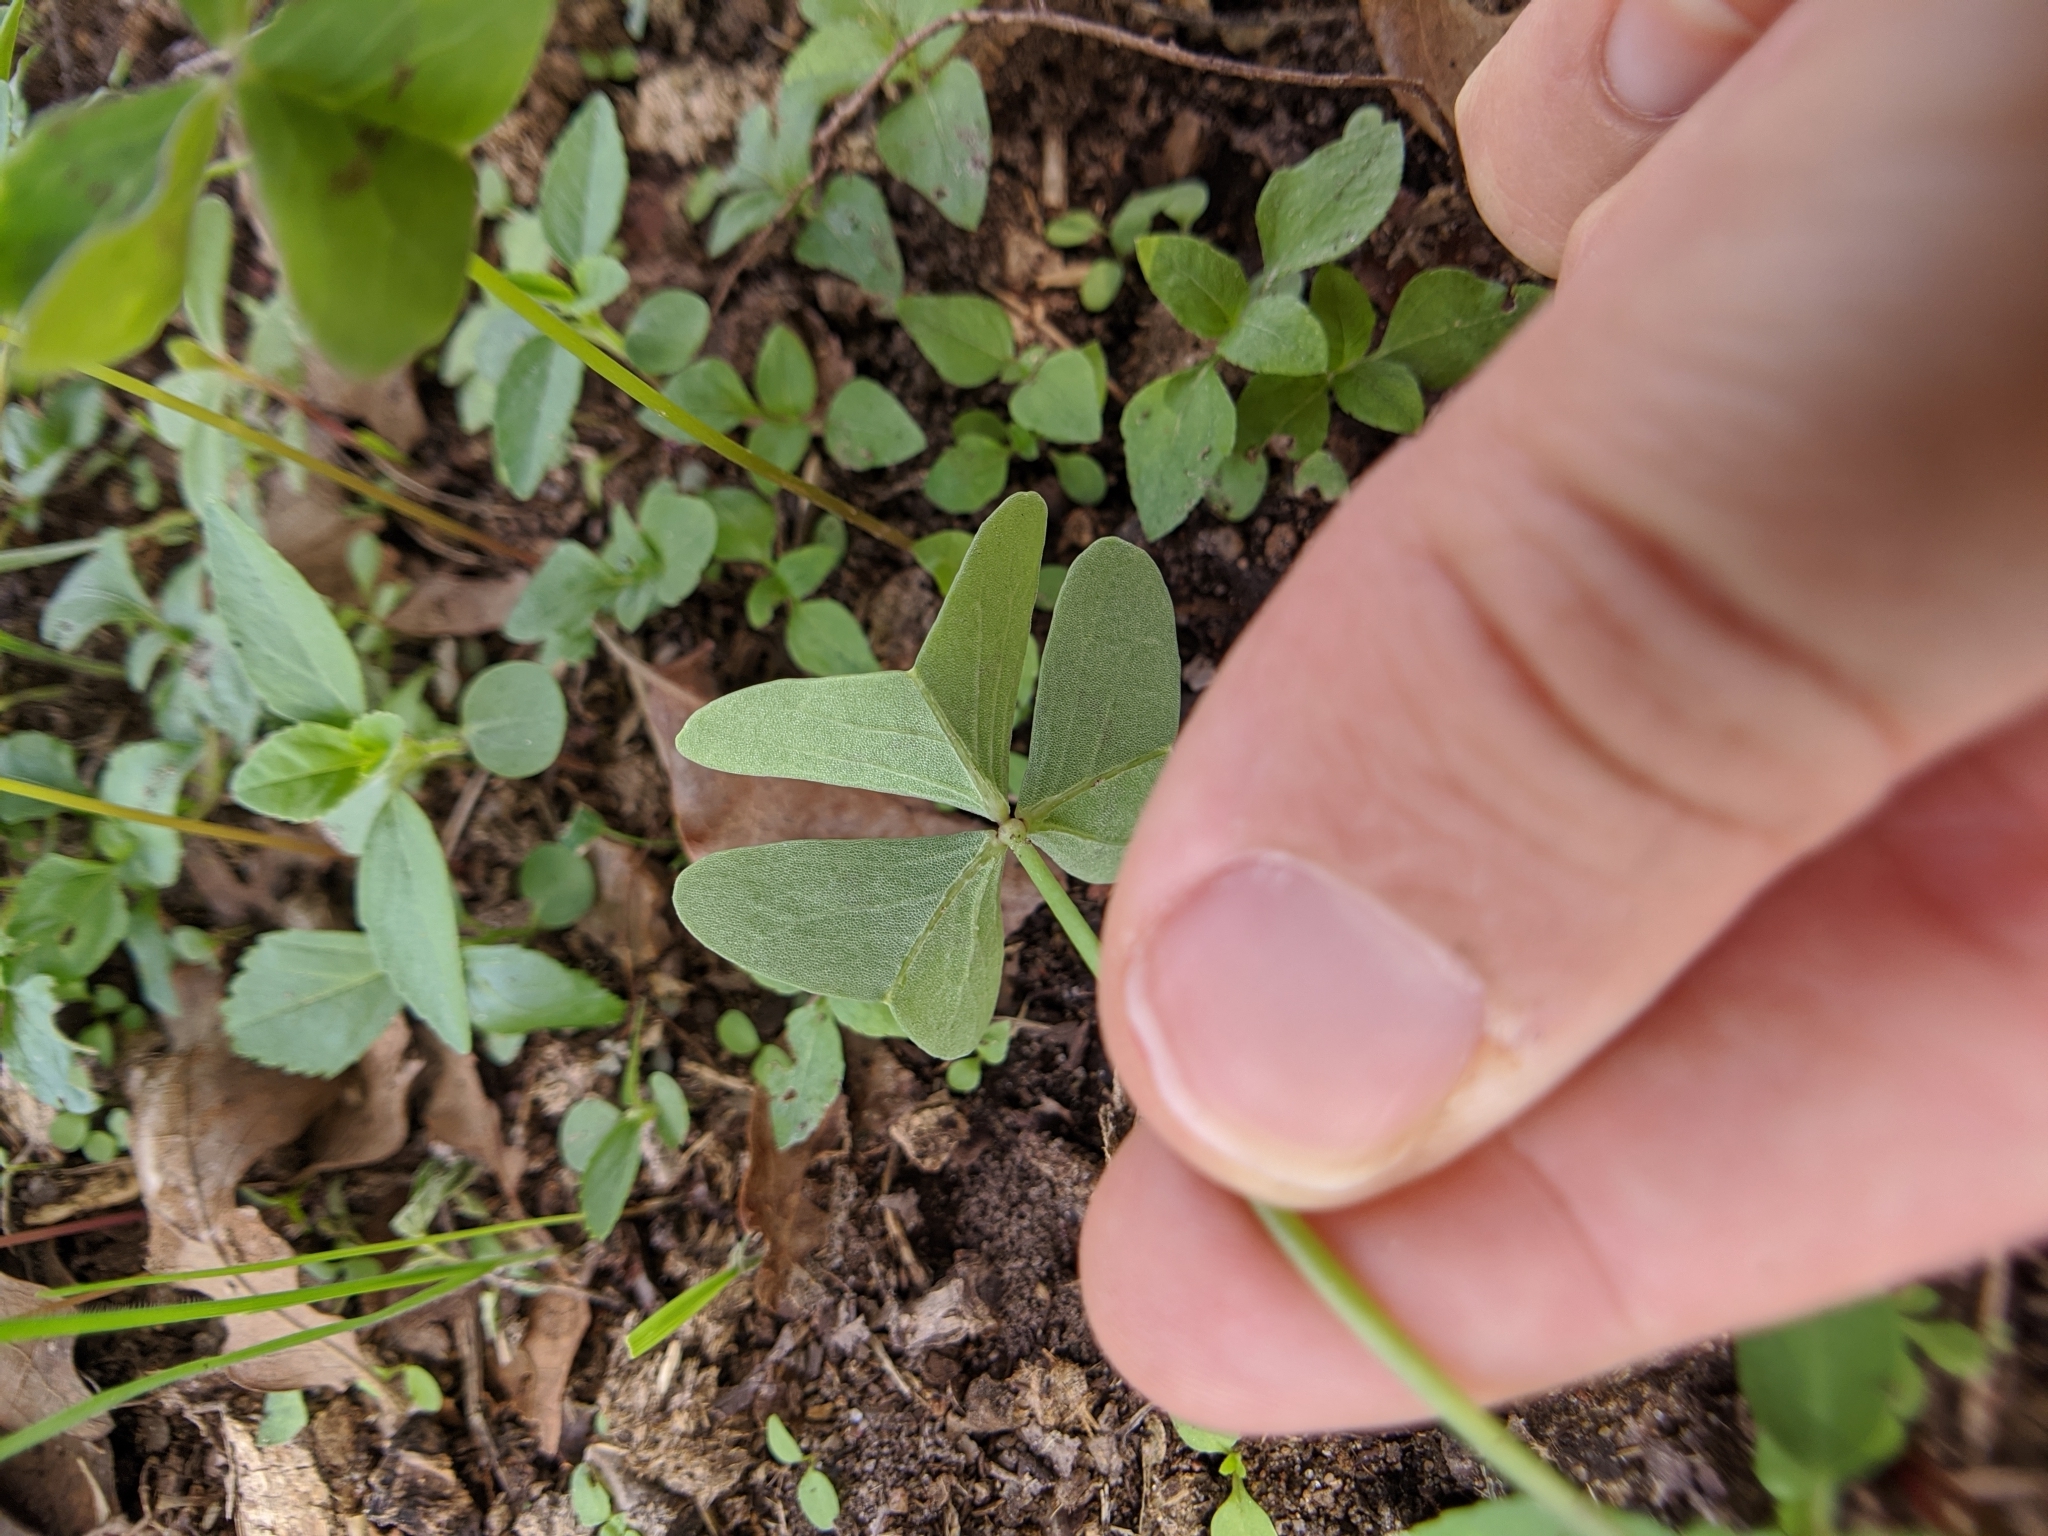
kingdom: Plantae
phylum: Tracheophyta
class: Magnoliopsida
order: Oxalidales
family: Oxalidaceae
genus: Oxalis
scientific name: Oxalis drummondii
